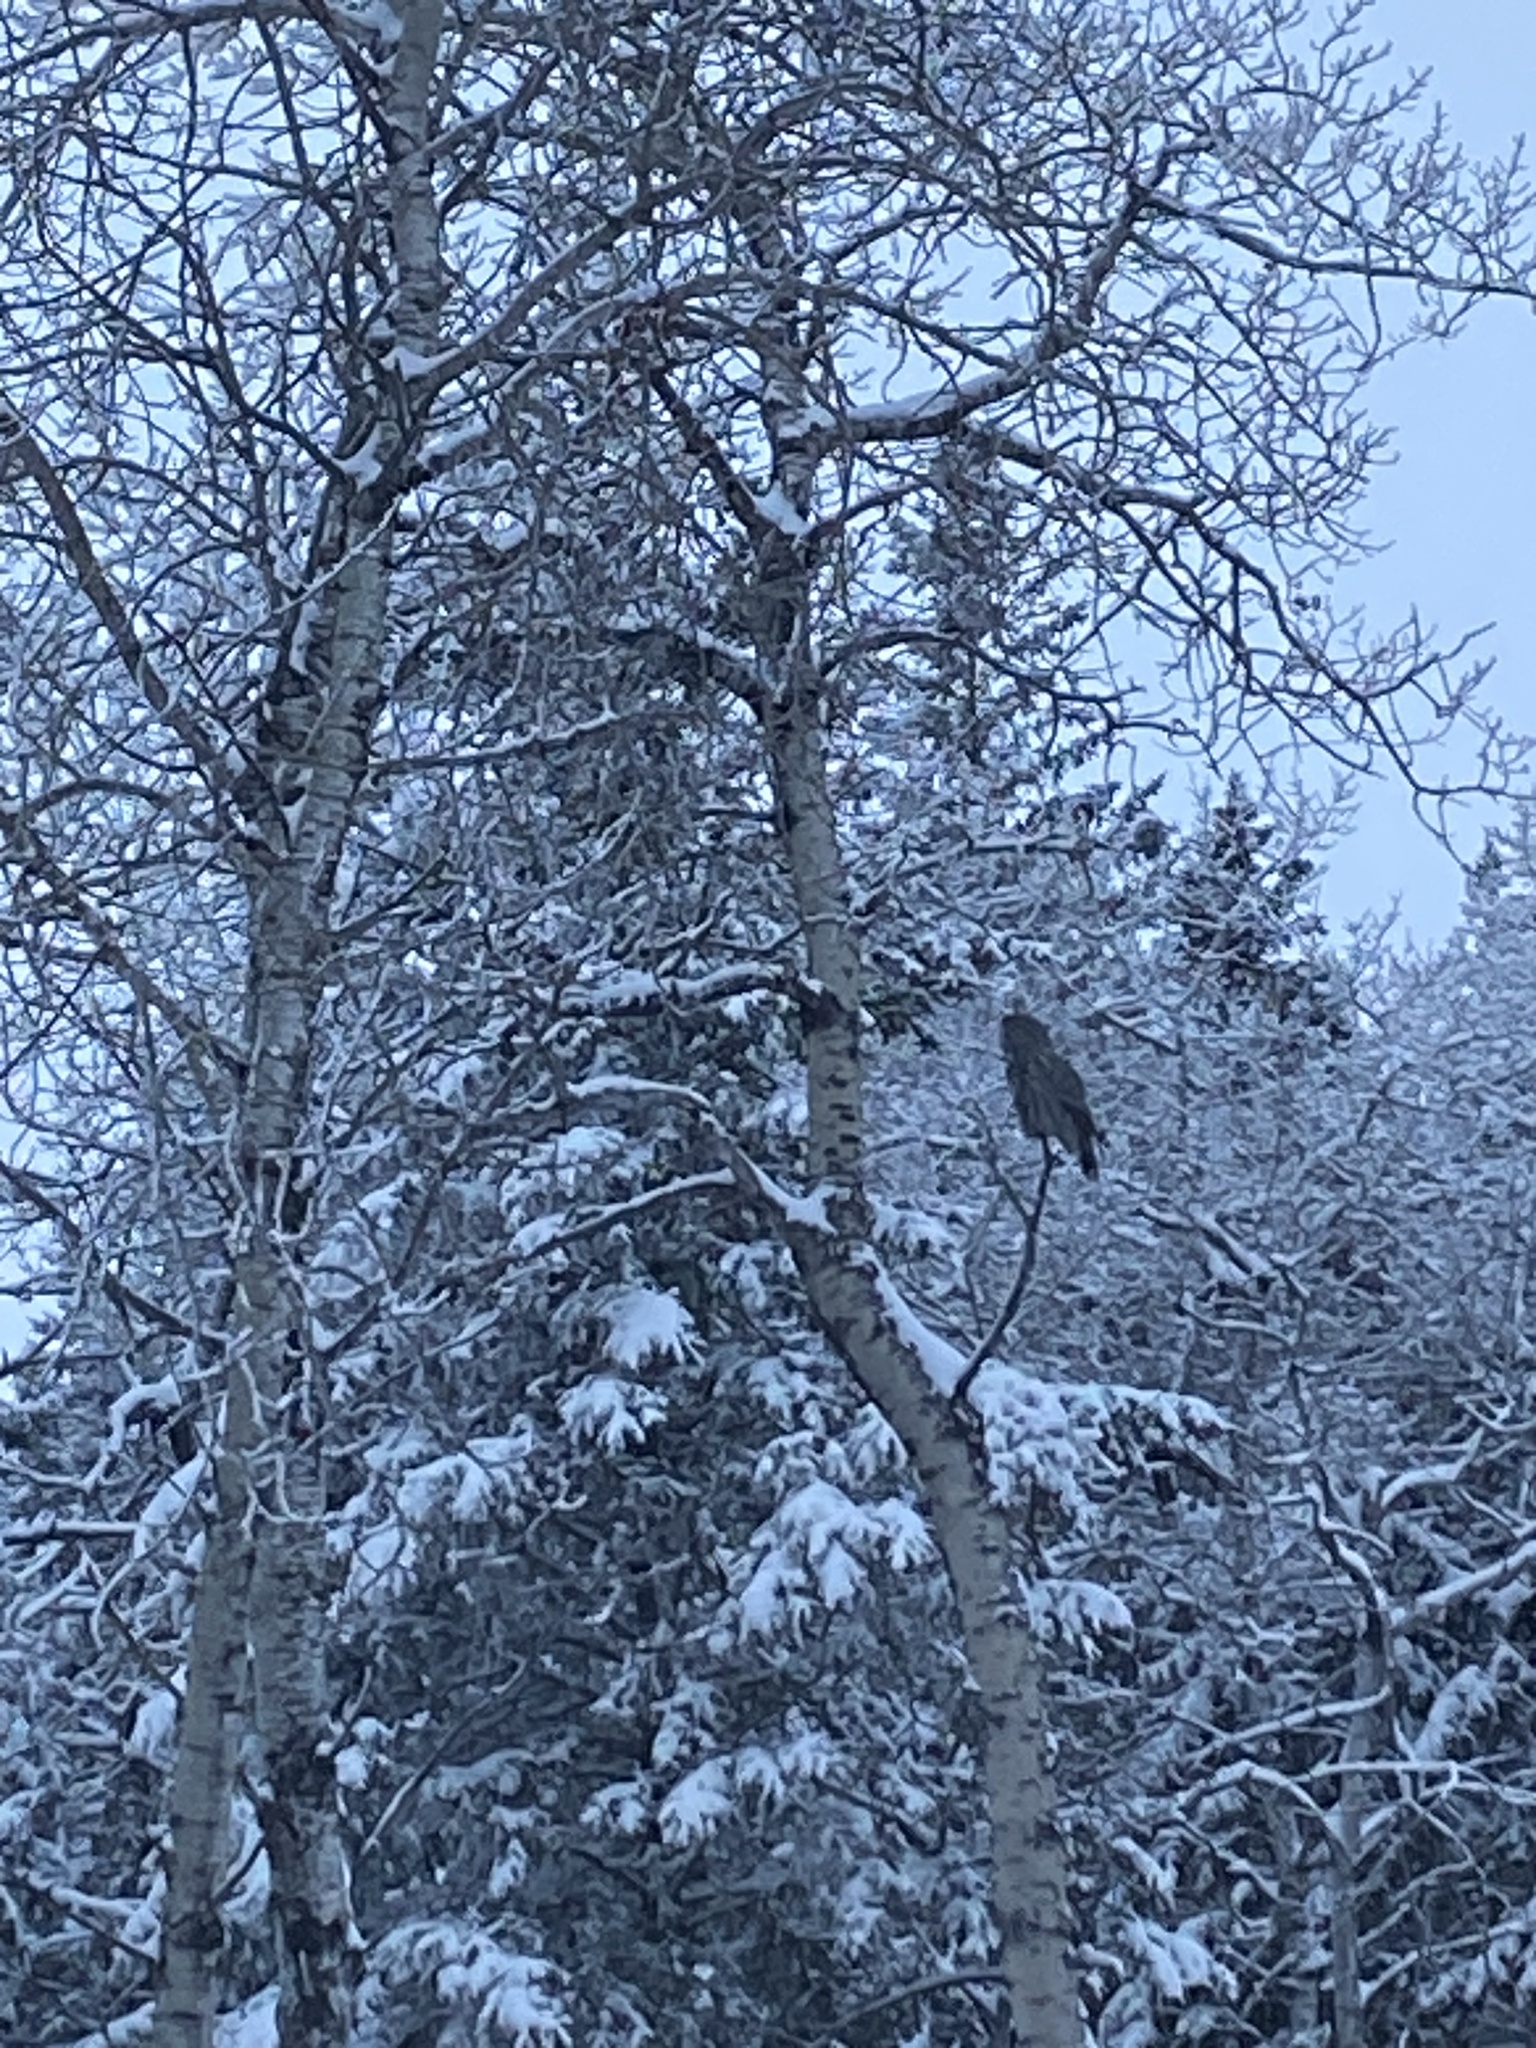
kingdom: Animalia
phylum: Chordata
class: Aves
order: Strigiformes
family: Strigidae
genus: Strix
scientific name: Strix nebulosa
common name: Great grey owl
